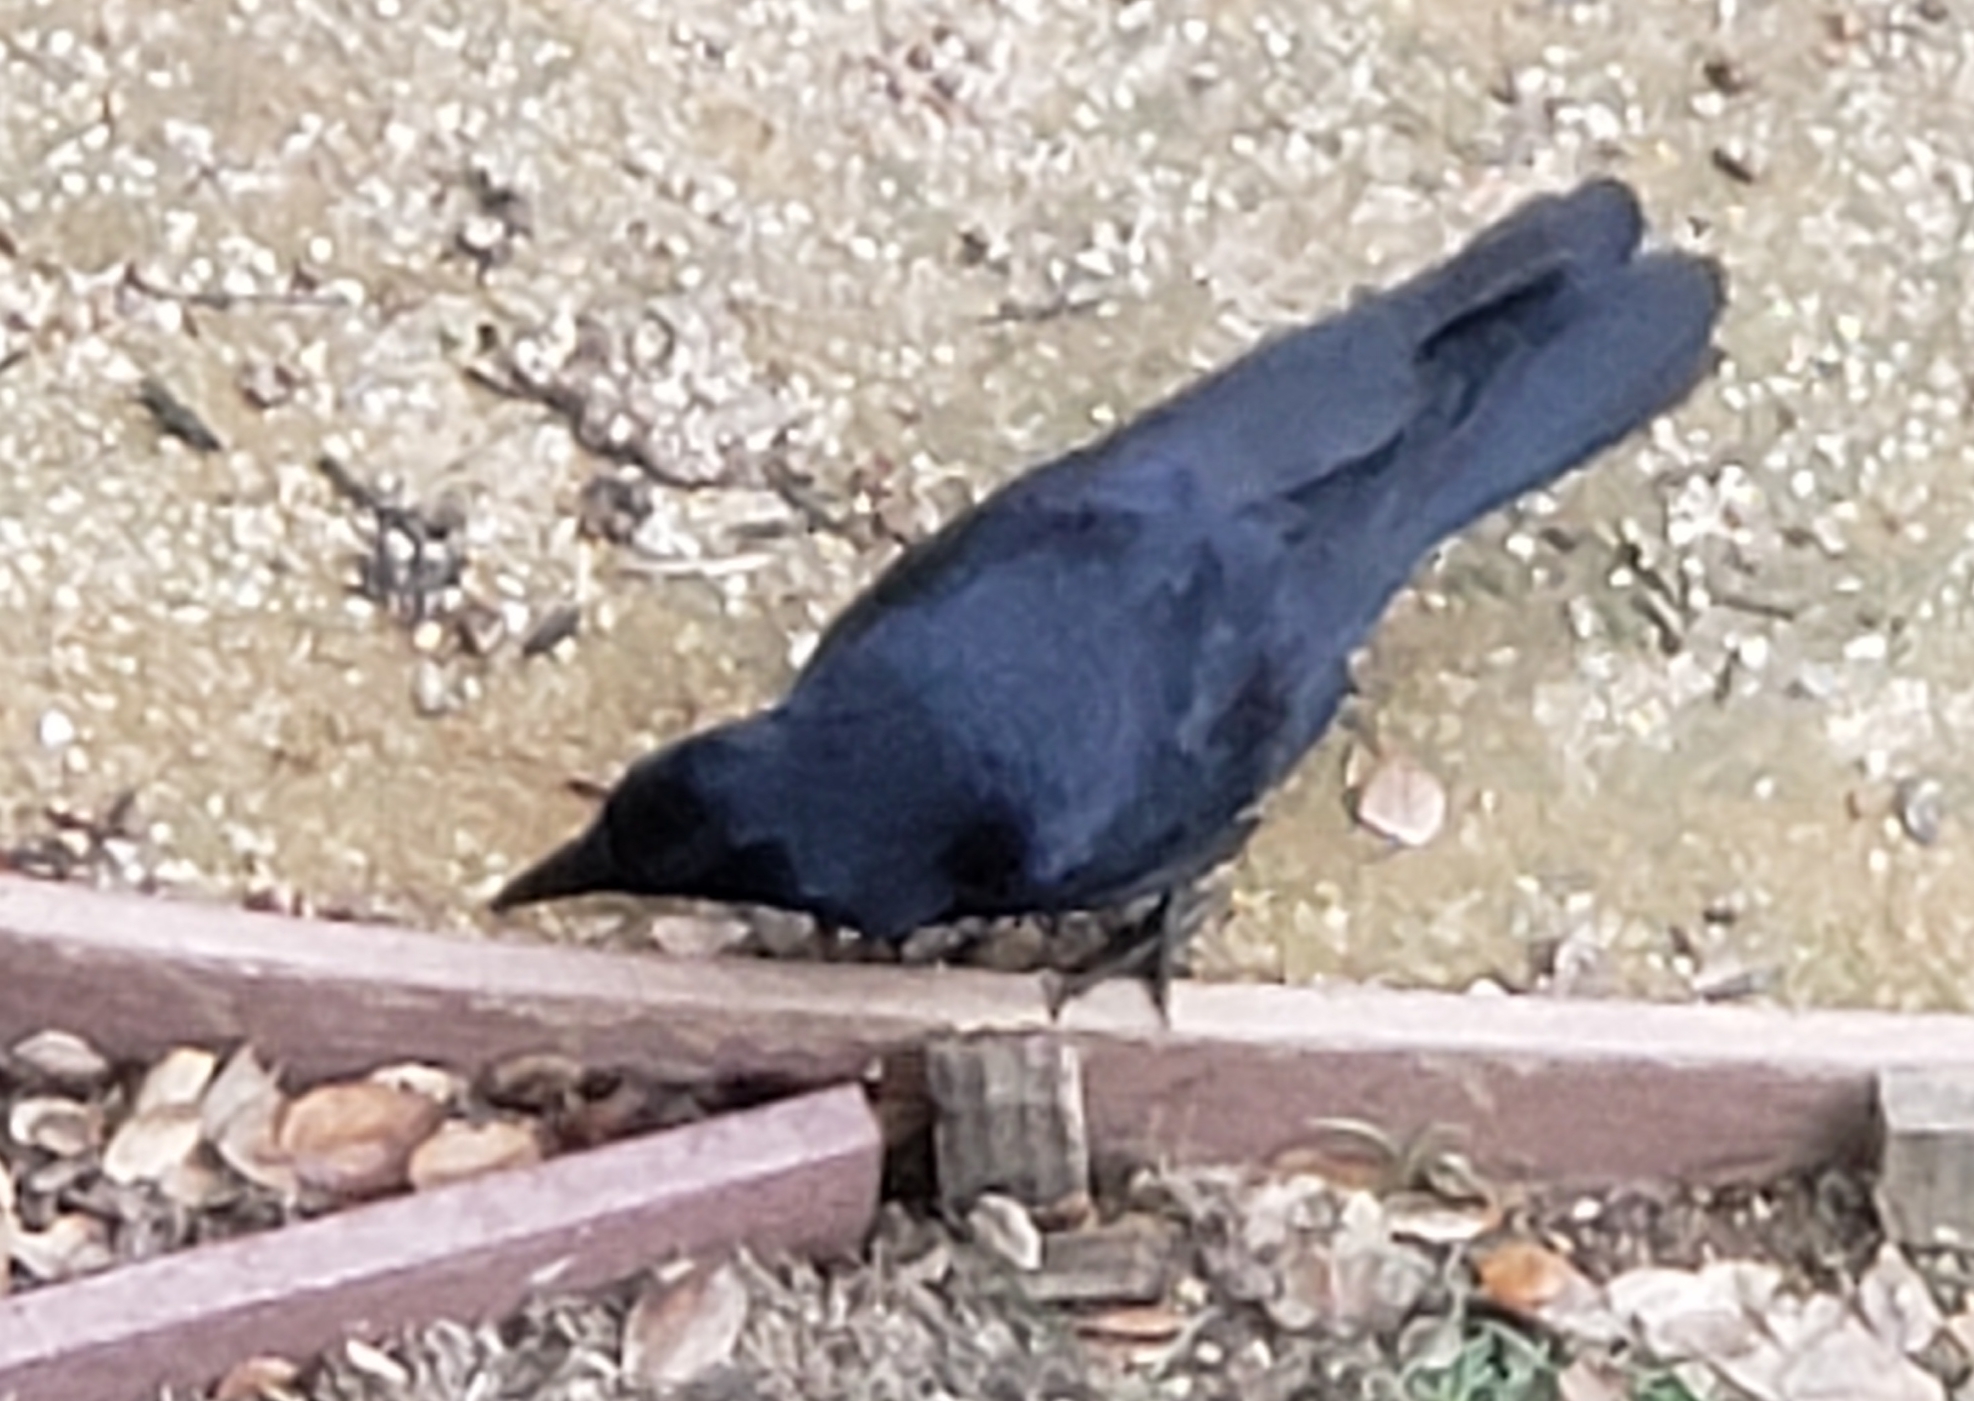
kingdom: Animalia
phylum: Chordata
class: Aves
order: Passeriformes
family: Corvidae
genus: Corvus
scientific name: Corvus brachyrhynchos
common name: American crow
